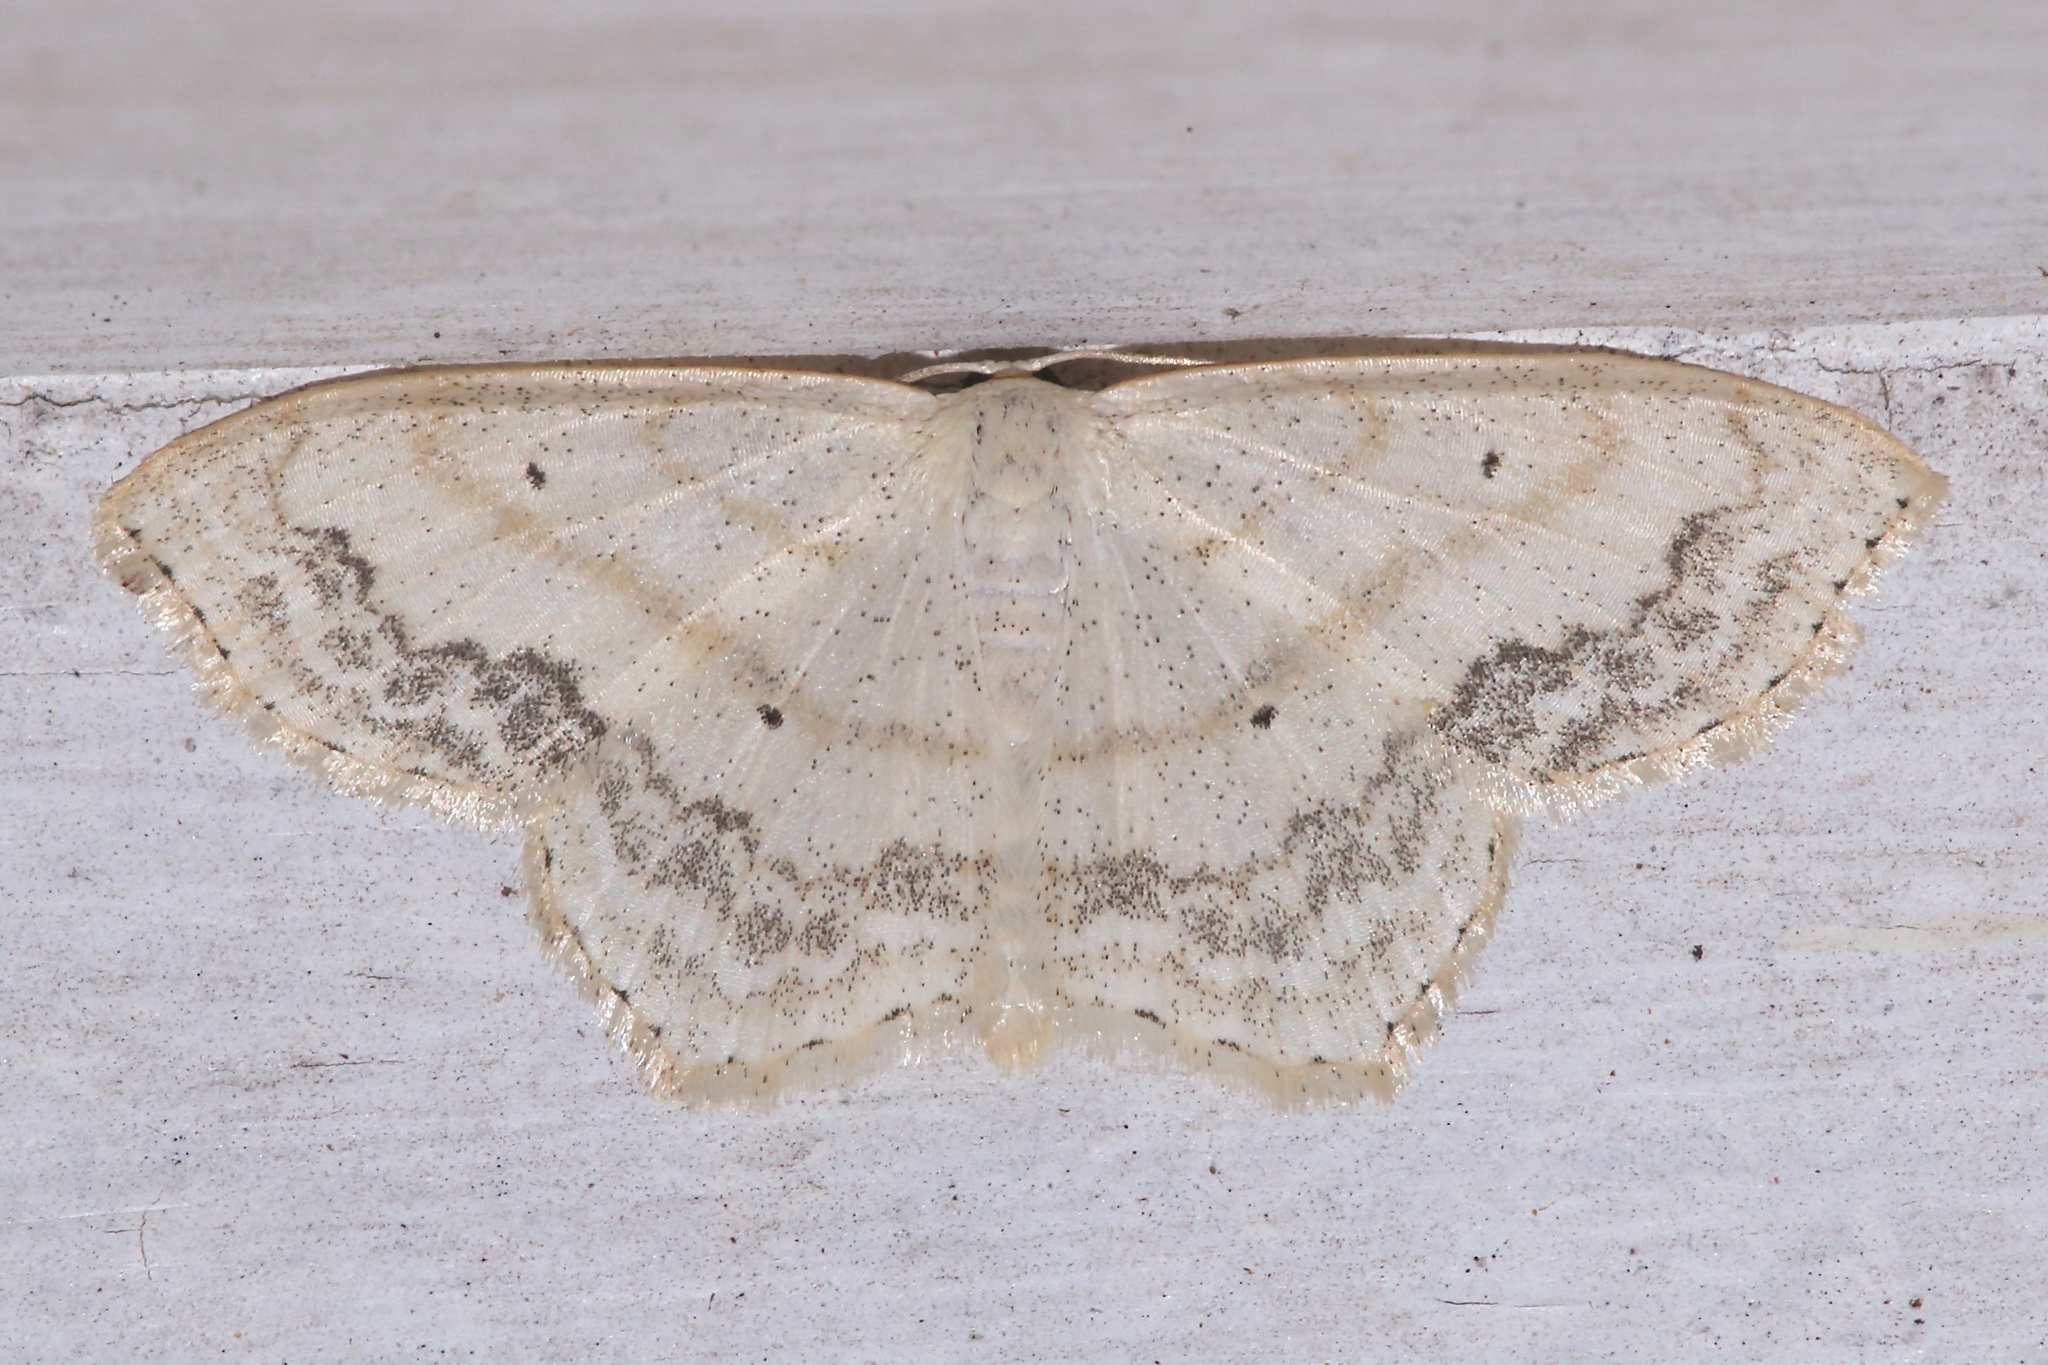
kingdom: Animalia
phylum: Arthropoda
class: Insecta
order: Lepidoptera
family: Geometridae
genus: Scopula
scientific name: Scopula limboundata
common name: Large lace border
